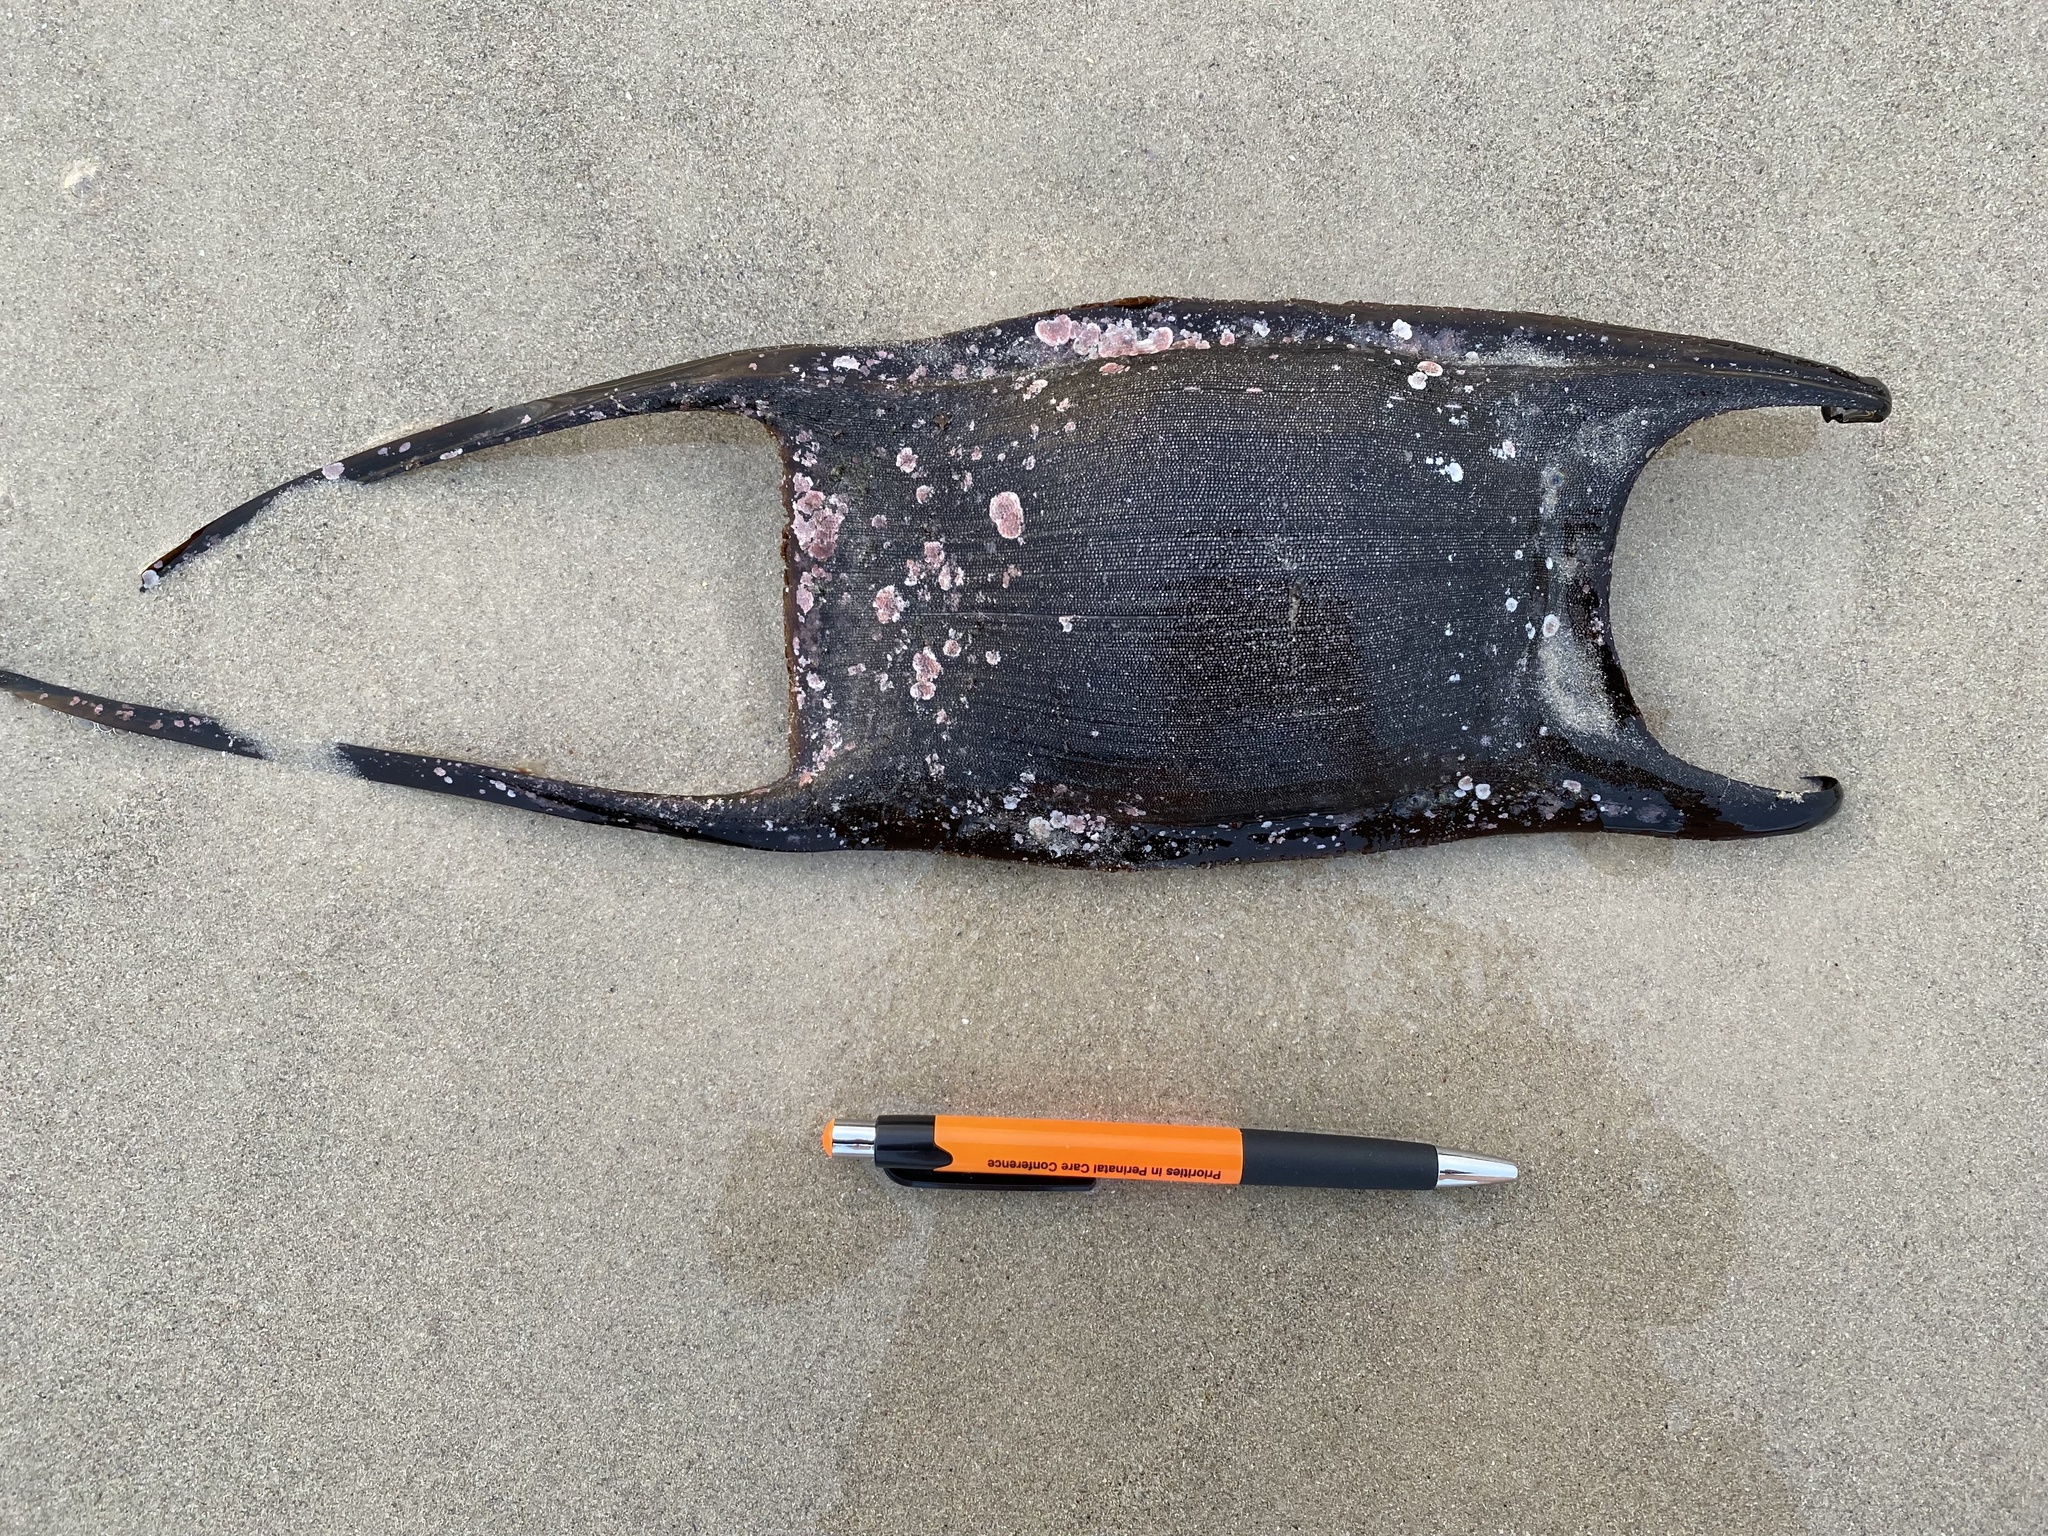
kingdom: Animalia
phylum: Chordata
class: Elasmobranchii
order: Rajiformes
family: Rajidae
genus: Rostroraja
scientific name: Rostroraja alba
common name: White skate
